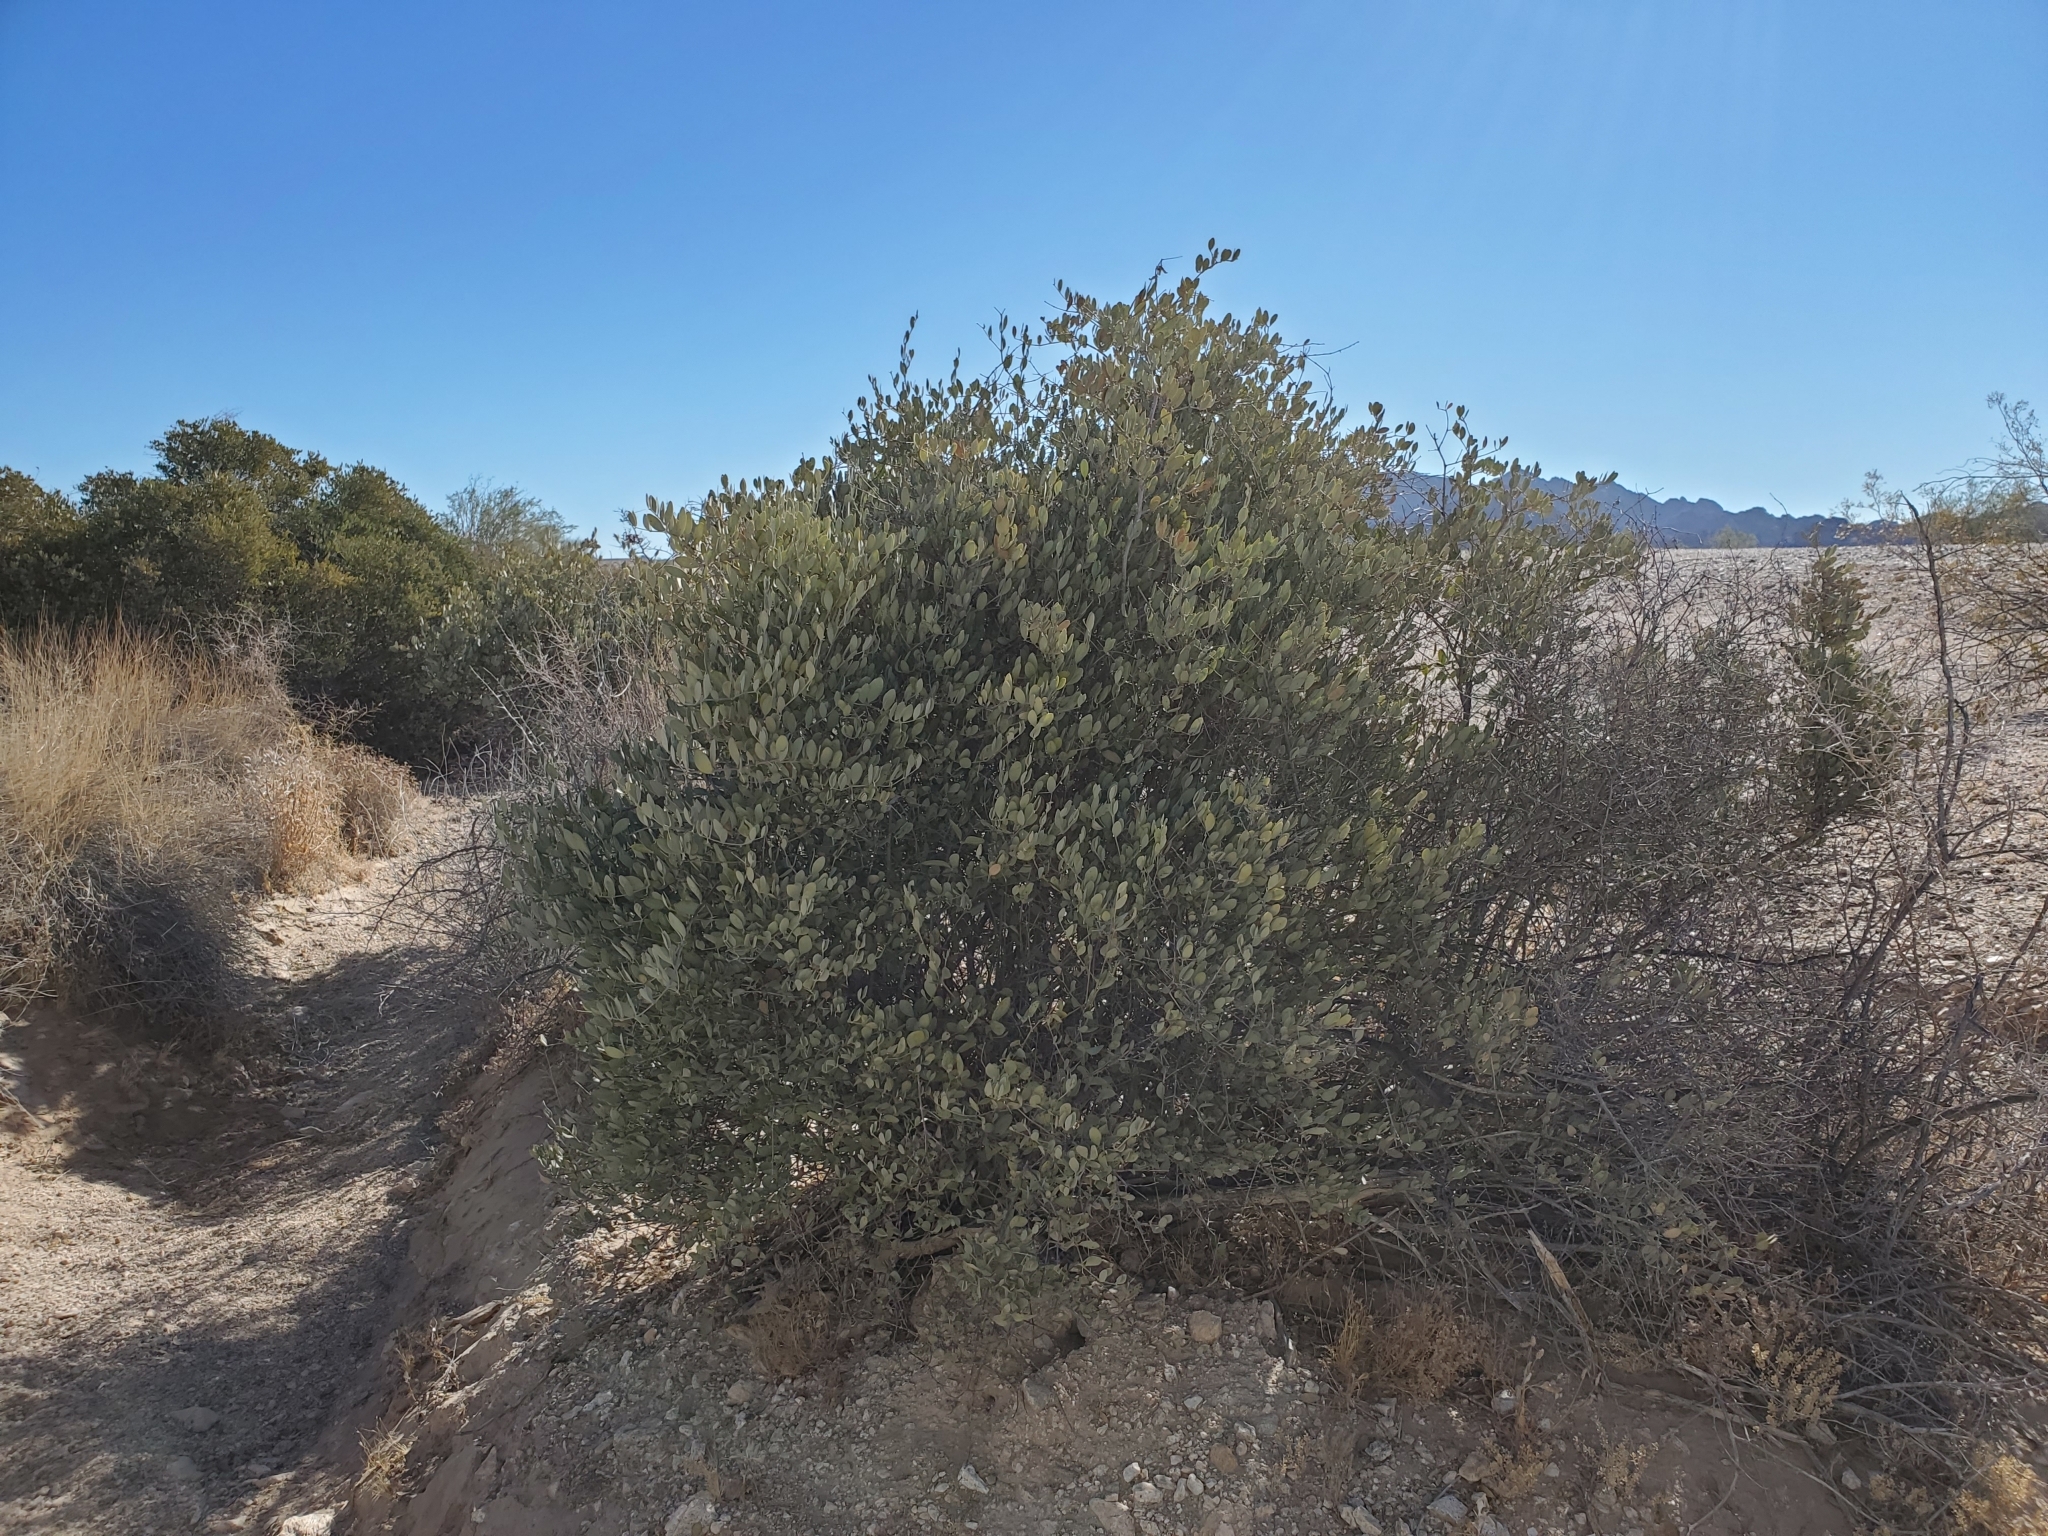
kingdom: Plantae
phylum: Tracheophyta
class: Magnoliopsida
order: Caryophyllales
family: Simmondsiaceae
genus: Simmondsia
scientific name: Simmondsia chinensis
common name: Jojoba
